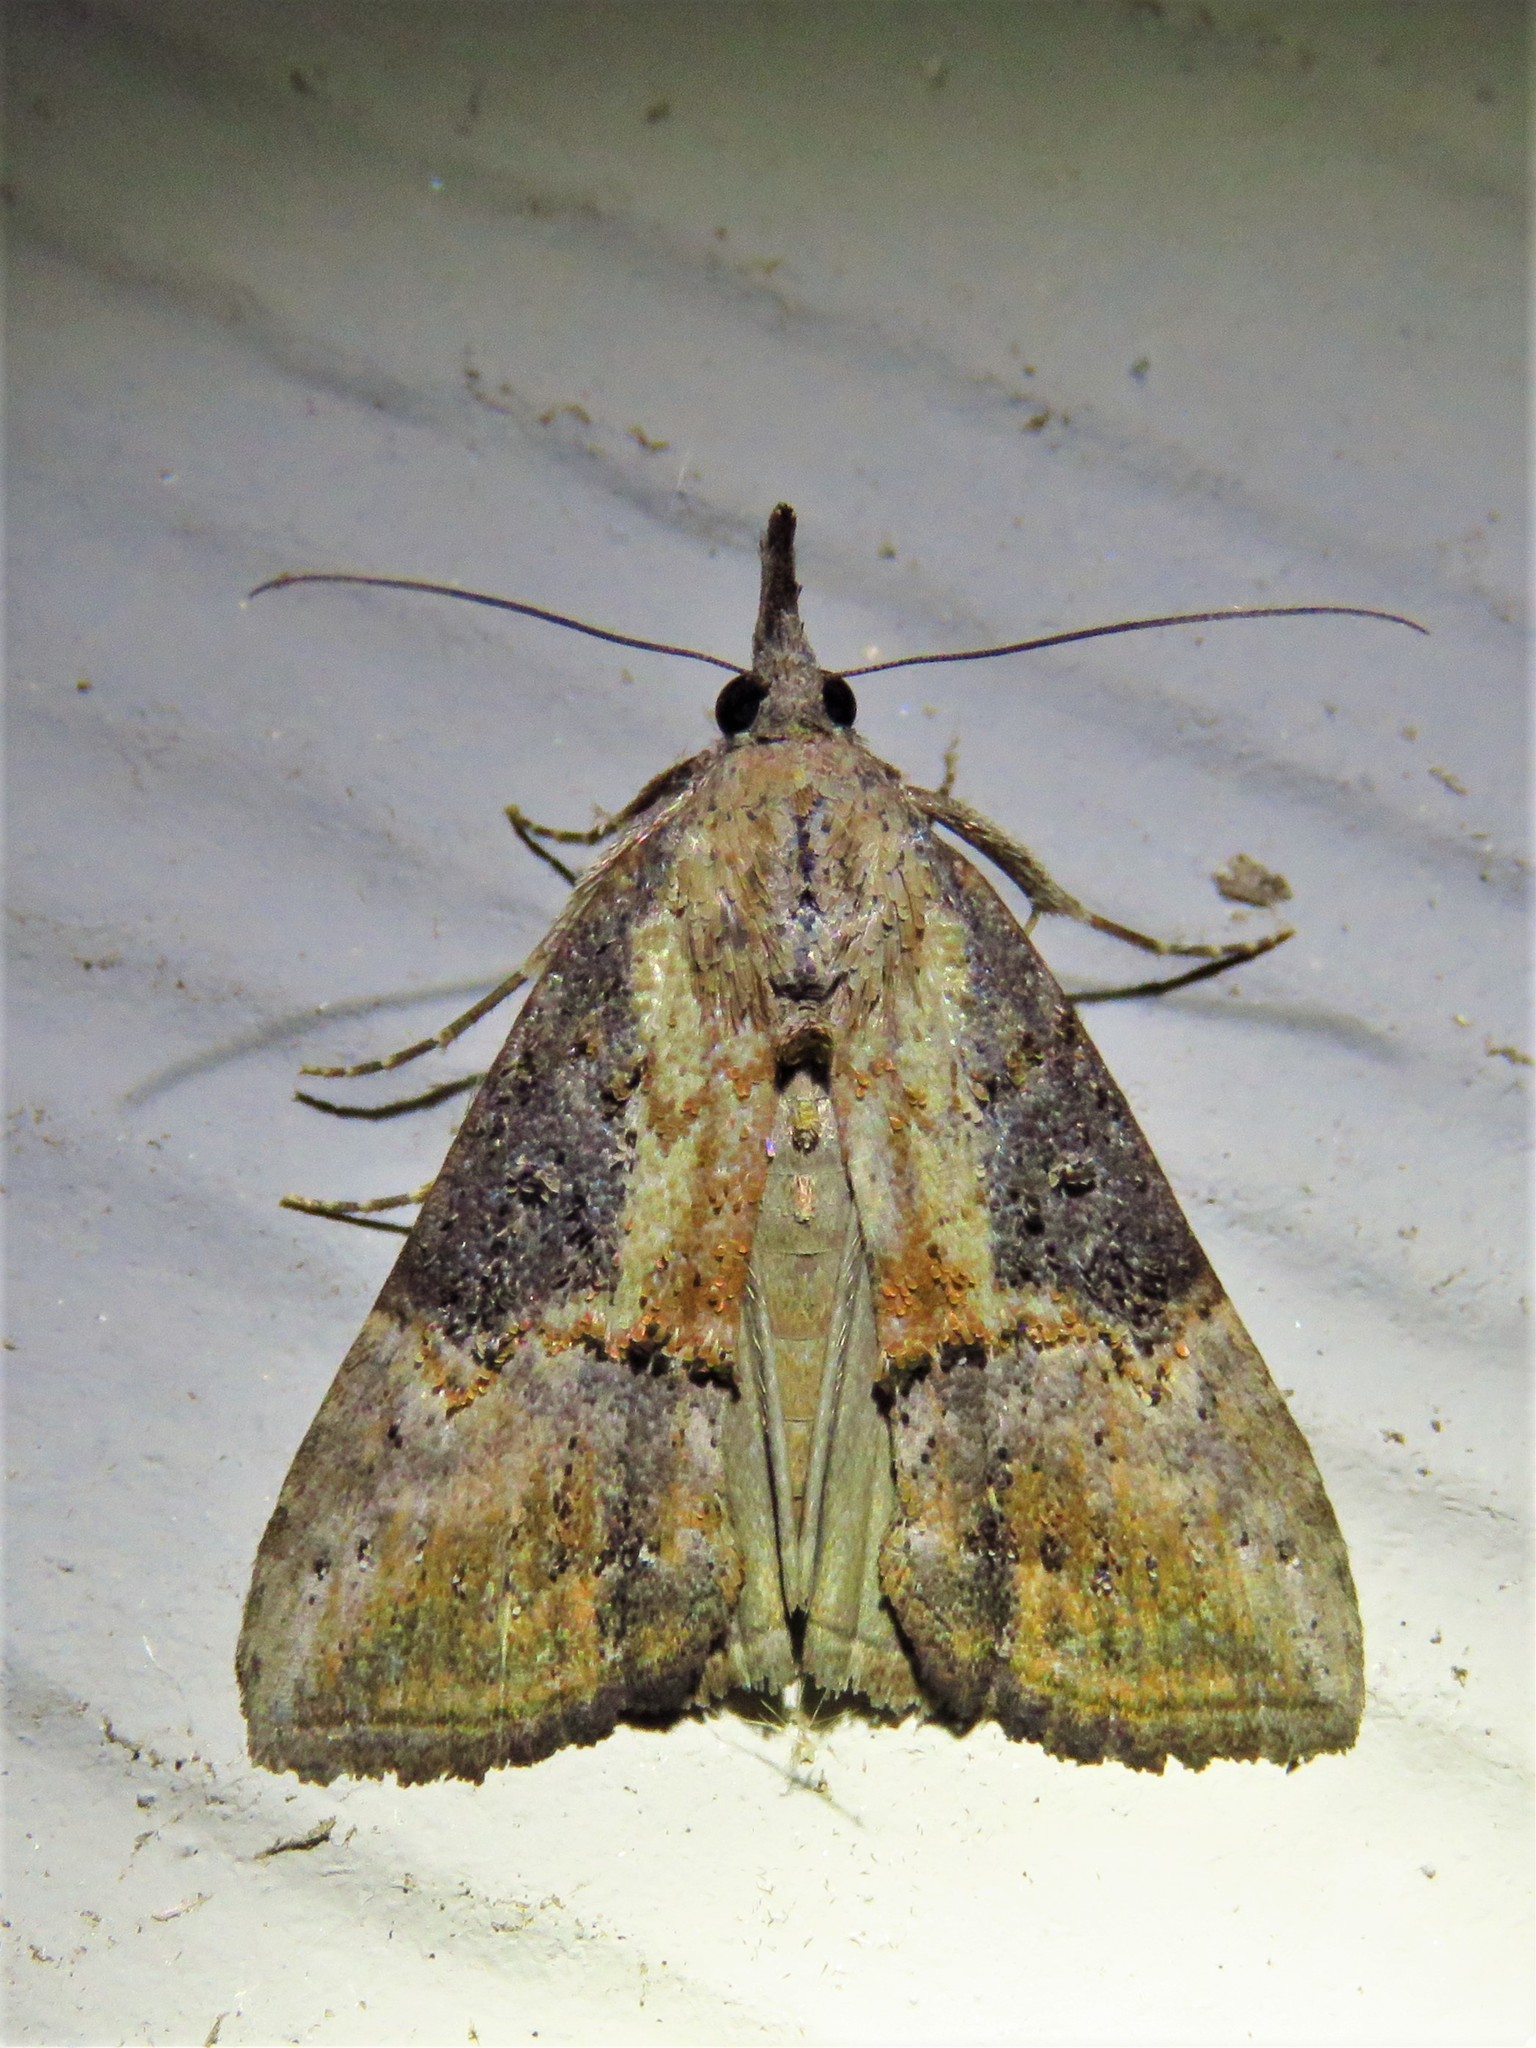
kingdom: Animalia
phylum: Arthropoda
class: Insecta
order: Lepidoptera
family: Erebidae
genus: Hypena
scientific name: Hypena scabra
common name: Green cloverworm
